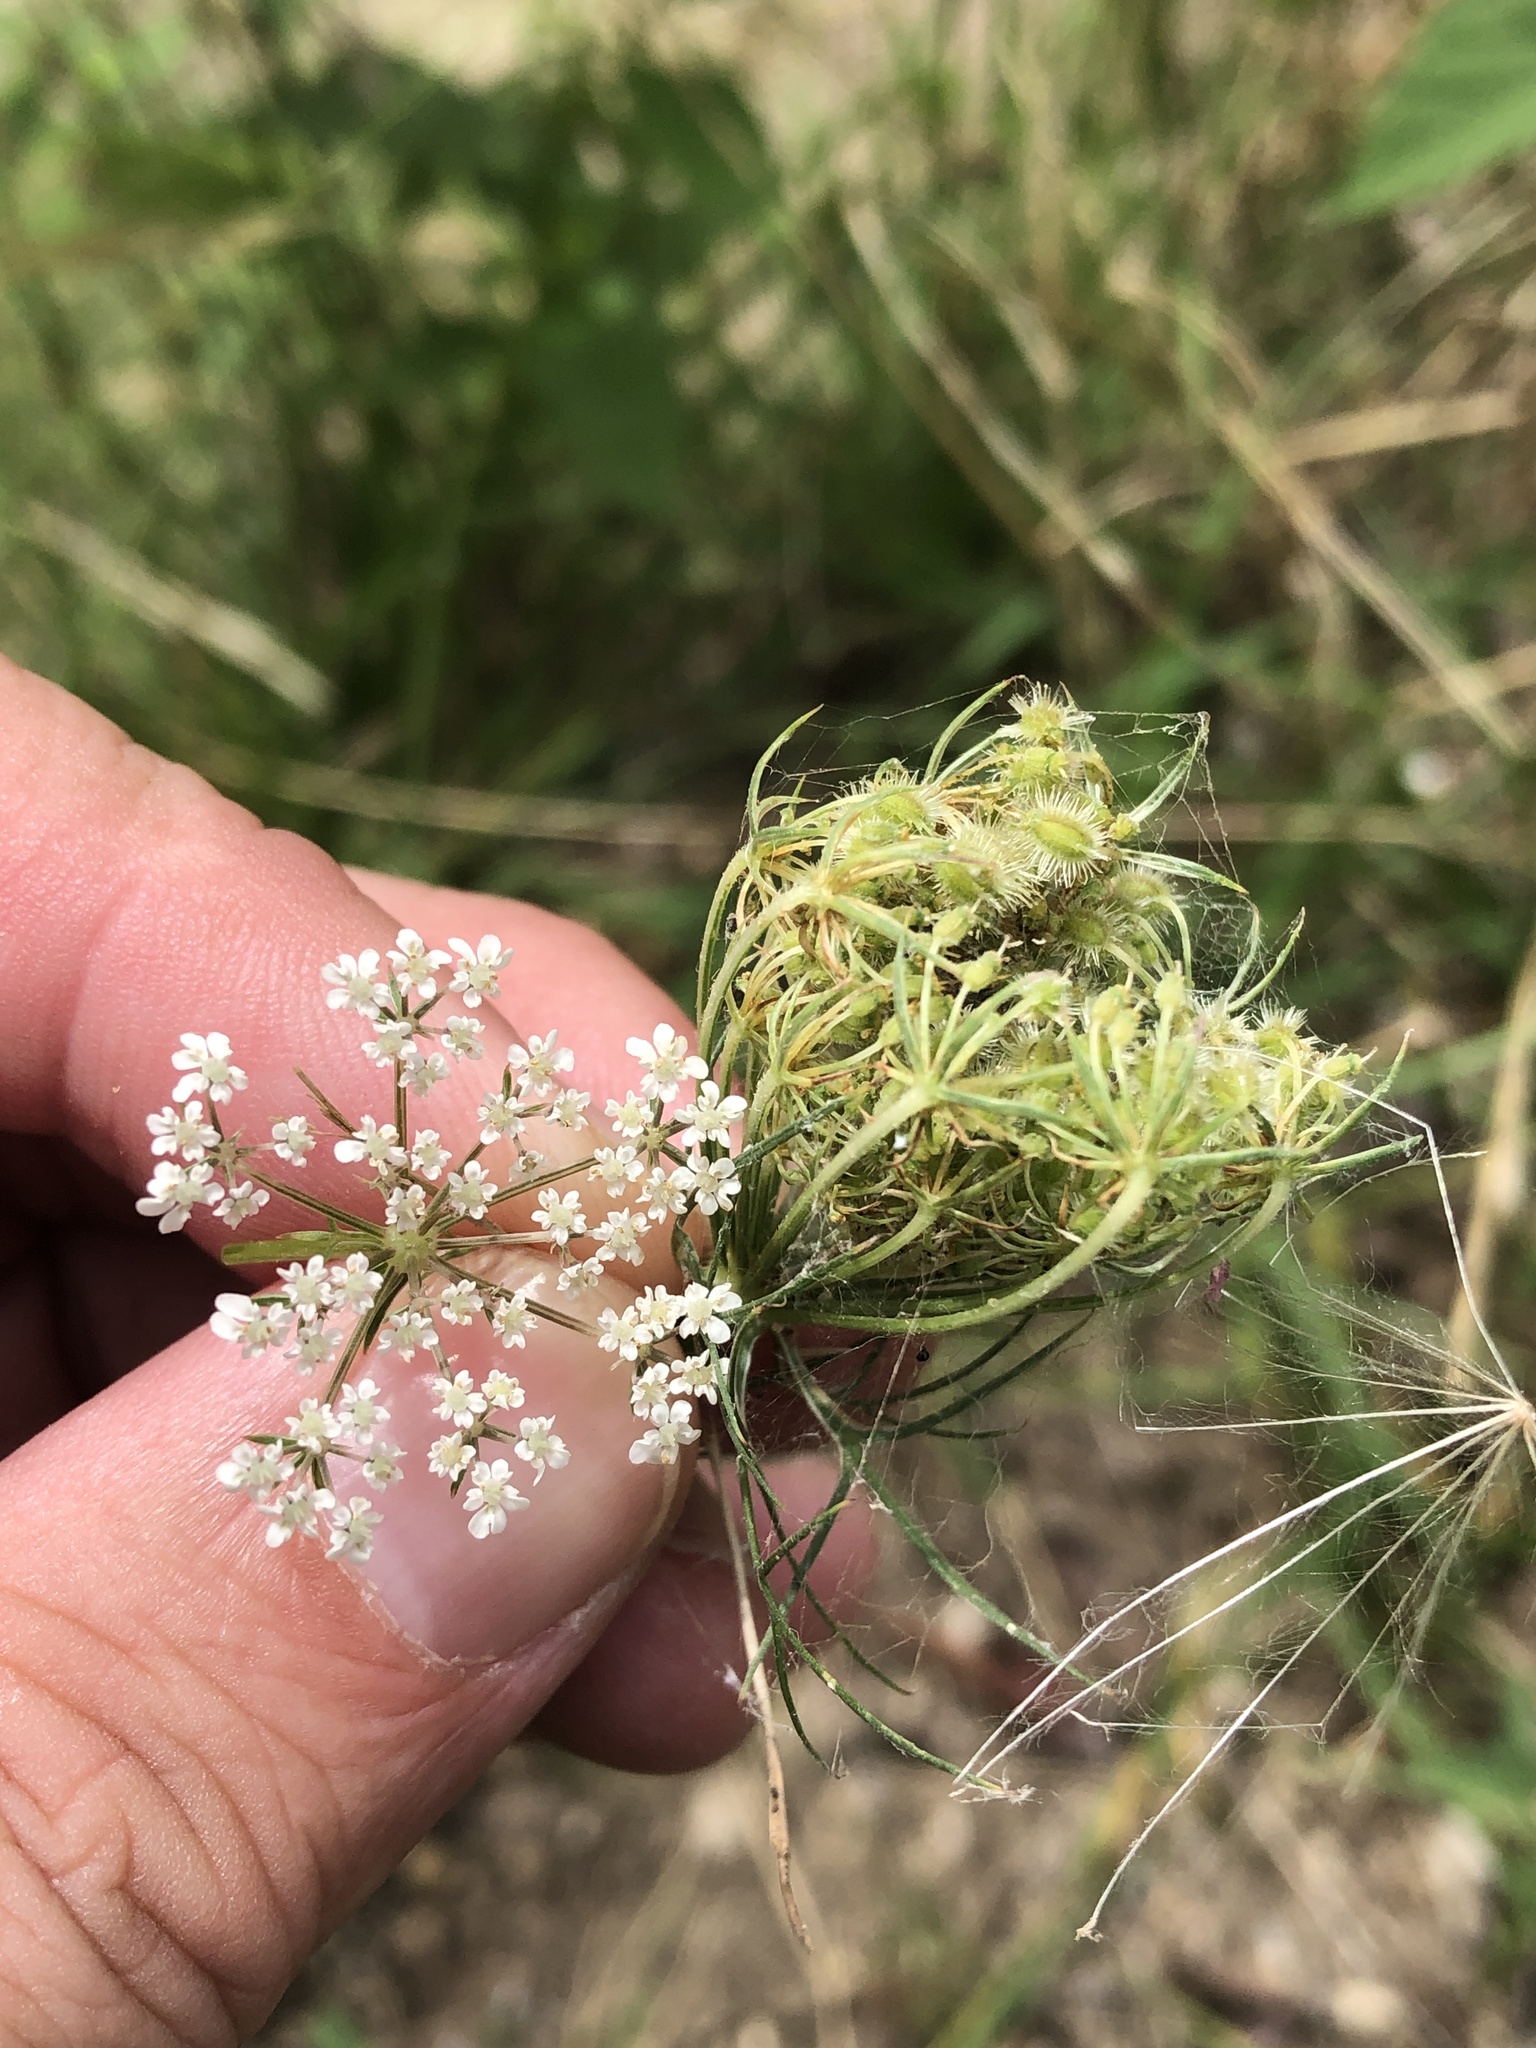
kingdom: Plantae
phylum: Tracheophyta
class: Magnoliopsida
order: Apiales
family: Apiaceae
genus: Daucus
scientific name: Daucus carota
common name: Wild carrot
